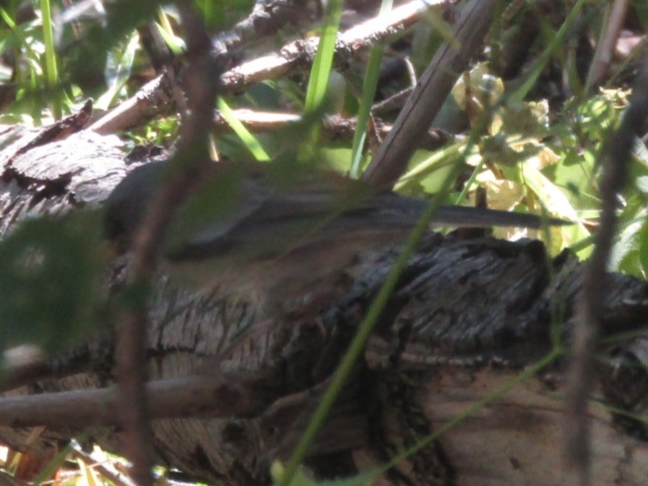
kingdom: Animalia
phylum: Chordata
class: Aves
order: Passeriformes
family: Passerellidae
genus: Junco
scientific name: Junco hyemalis
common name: Dark-eyed junco
